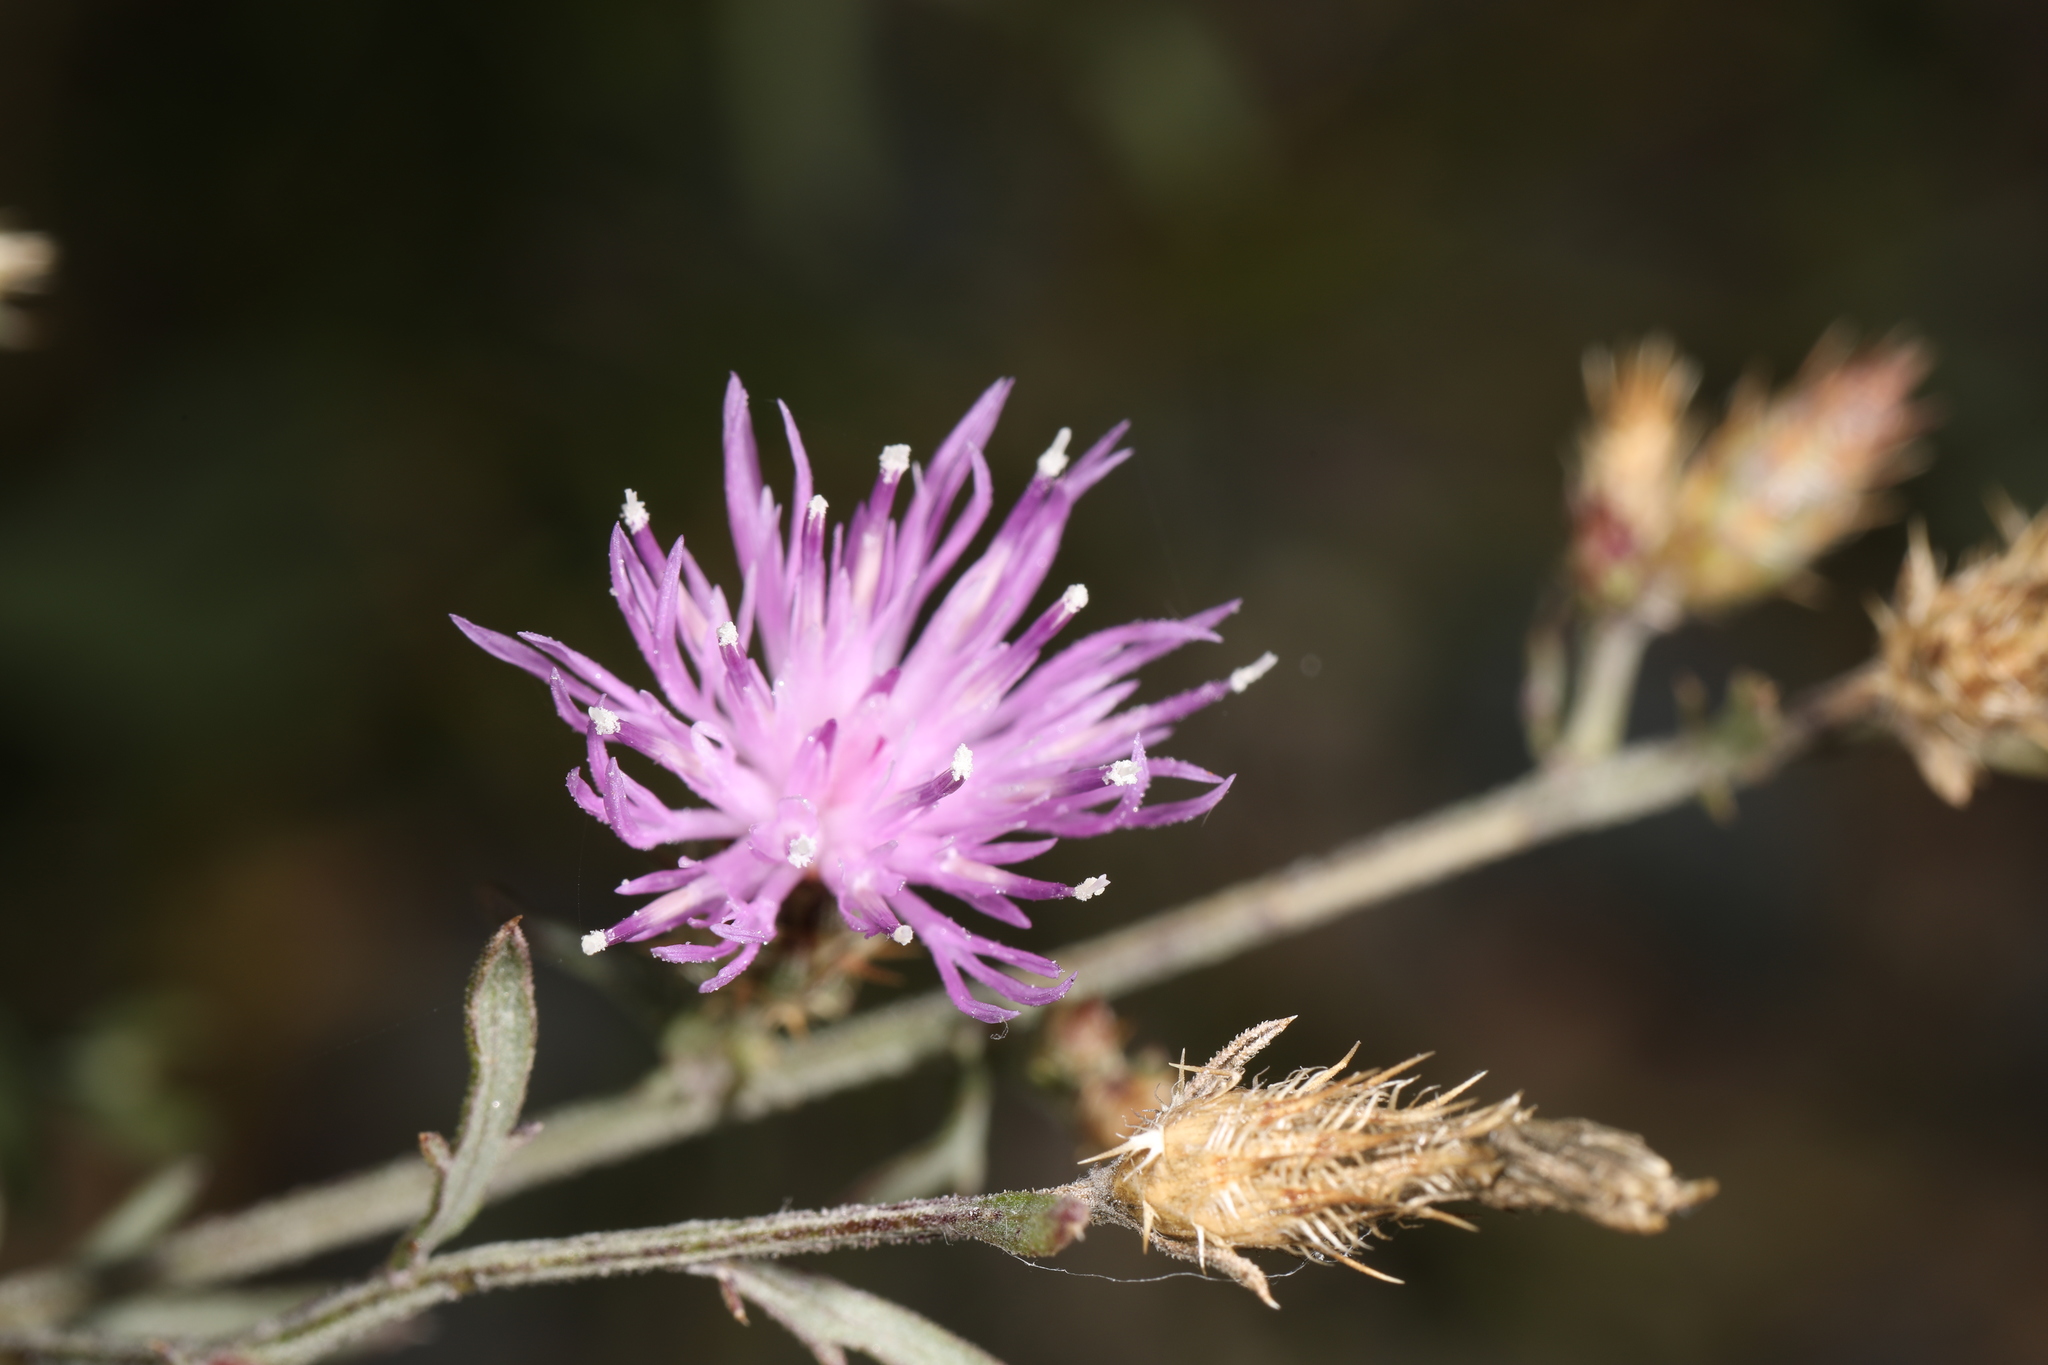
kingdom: Plantae
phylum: Tracheophyta
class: Magnoliopsida
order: Asterales
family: Asteraceae
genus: Centaurea
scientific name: Centaurea diffusa
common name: Diffuse knapweed
